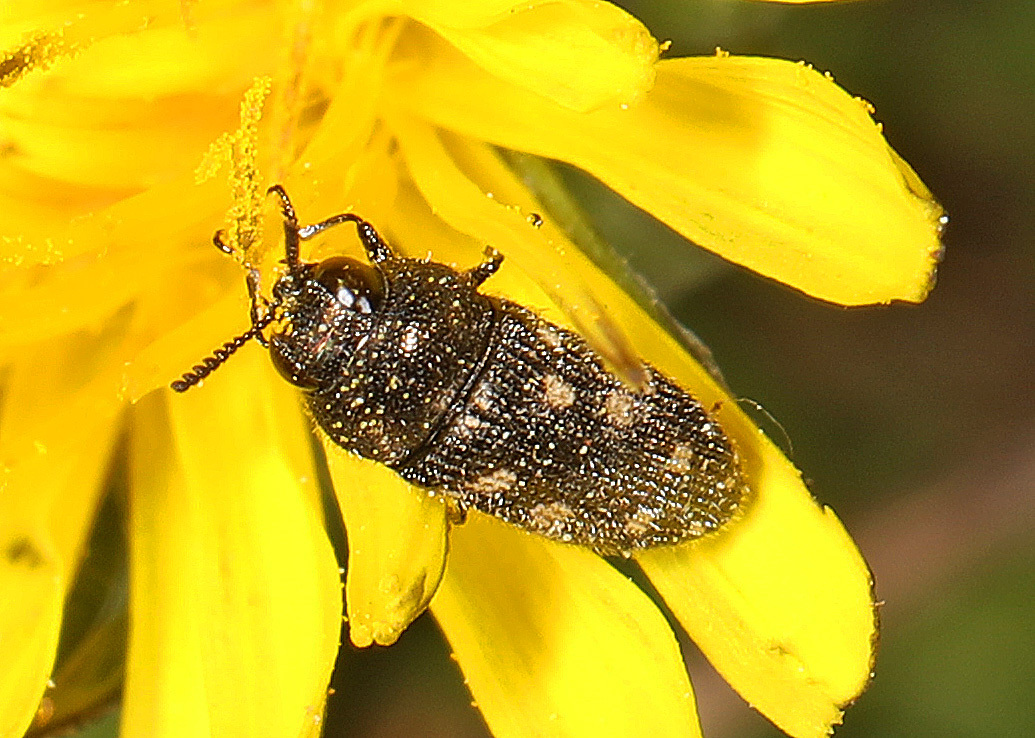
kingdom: Animalia
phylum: Arthropoda
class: Insecta
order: Coleoptera
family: Buprestidae
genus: Acmaeodera
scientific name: Acmaeodera tubulus
